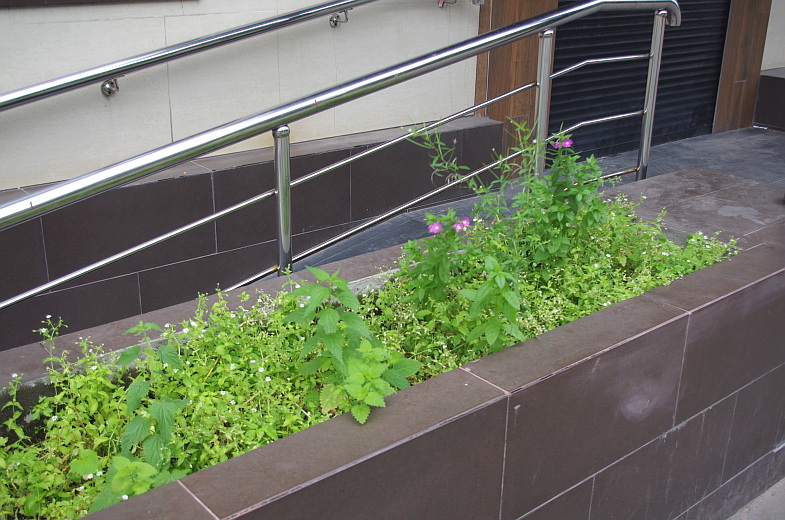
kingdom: Plantae
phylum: Tracheophyta
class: Magnoliopsida
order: Caryophyllales
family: Caryophyllaceae
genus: Stellaria
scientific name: Stellaria media
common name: Common chickweed
